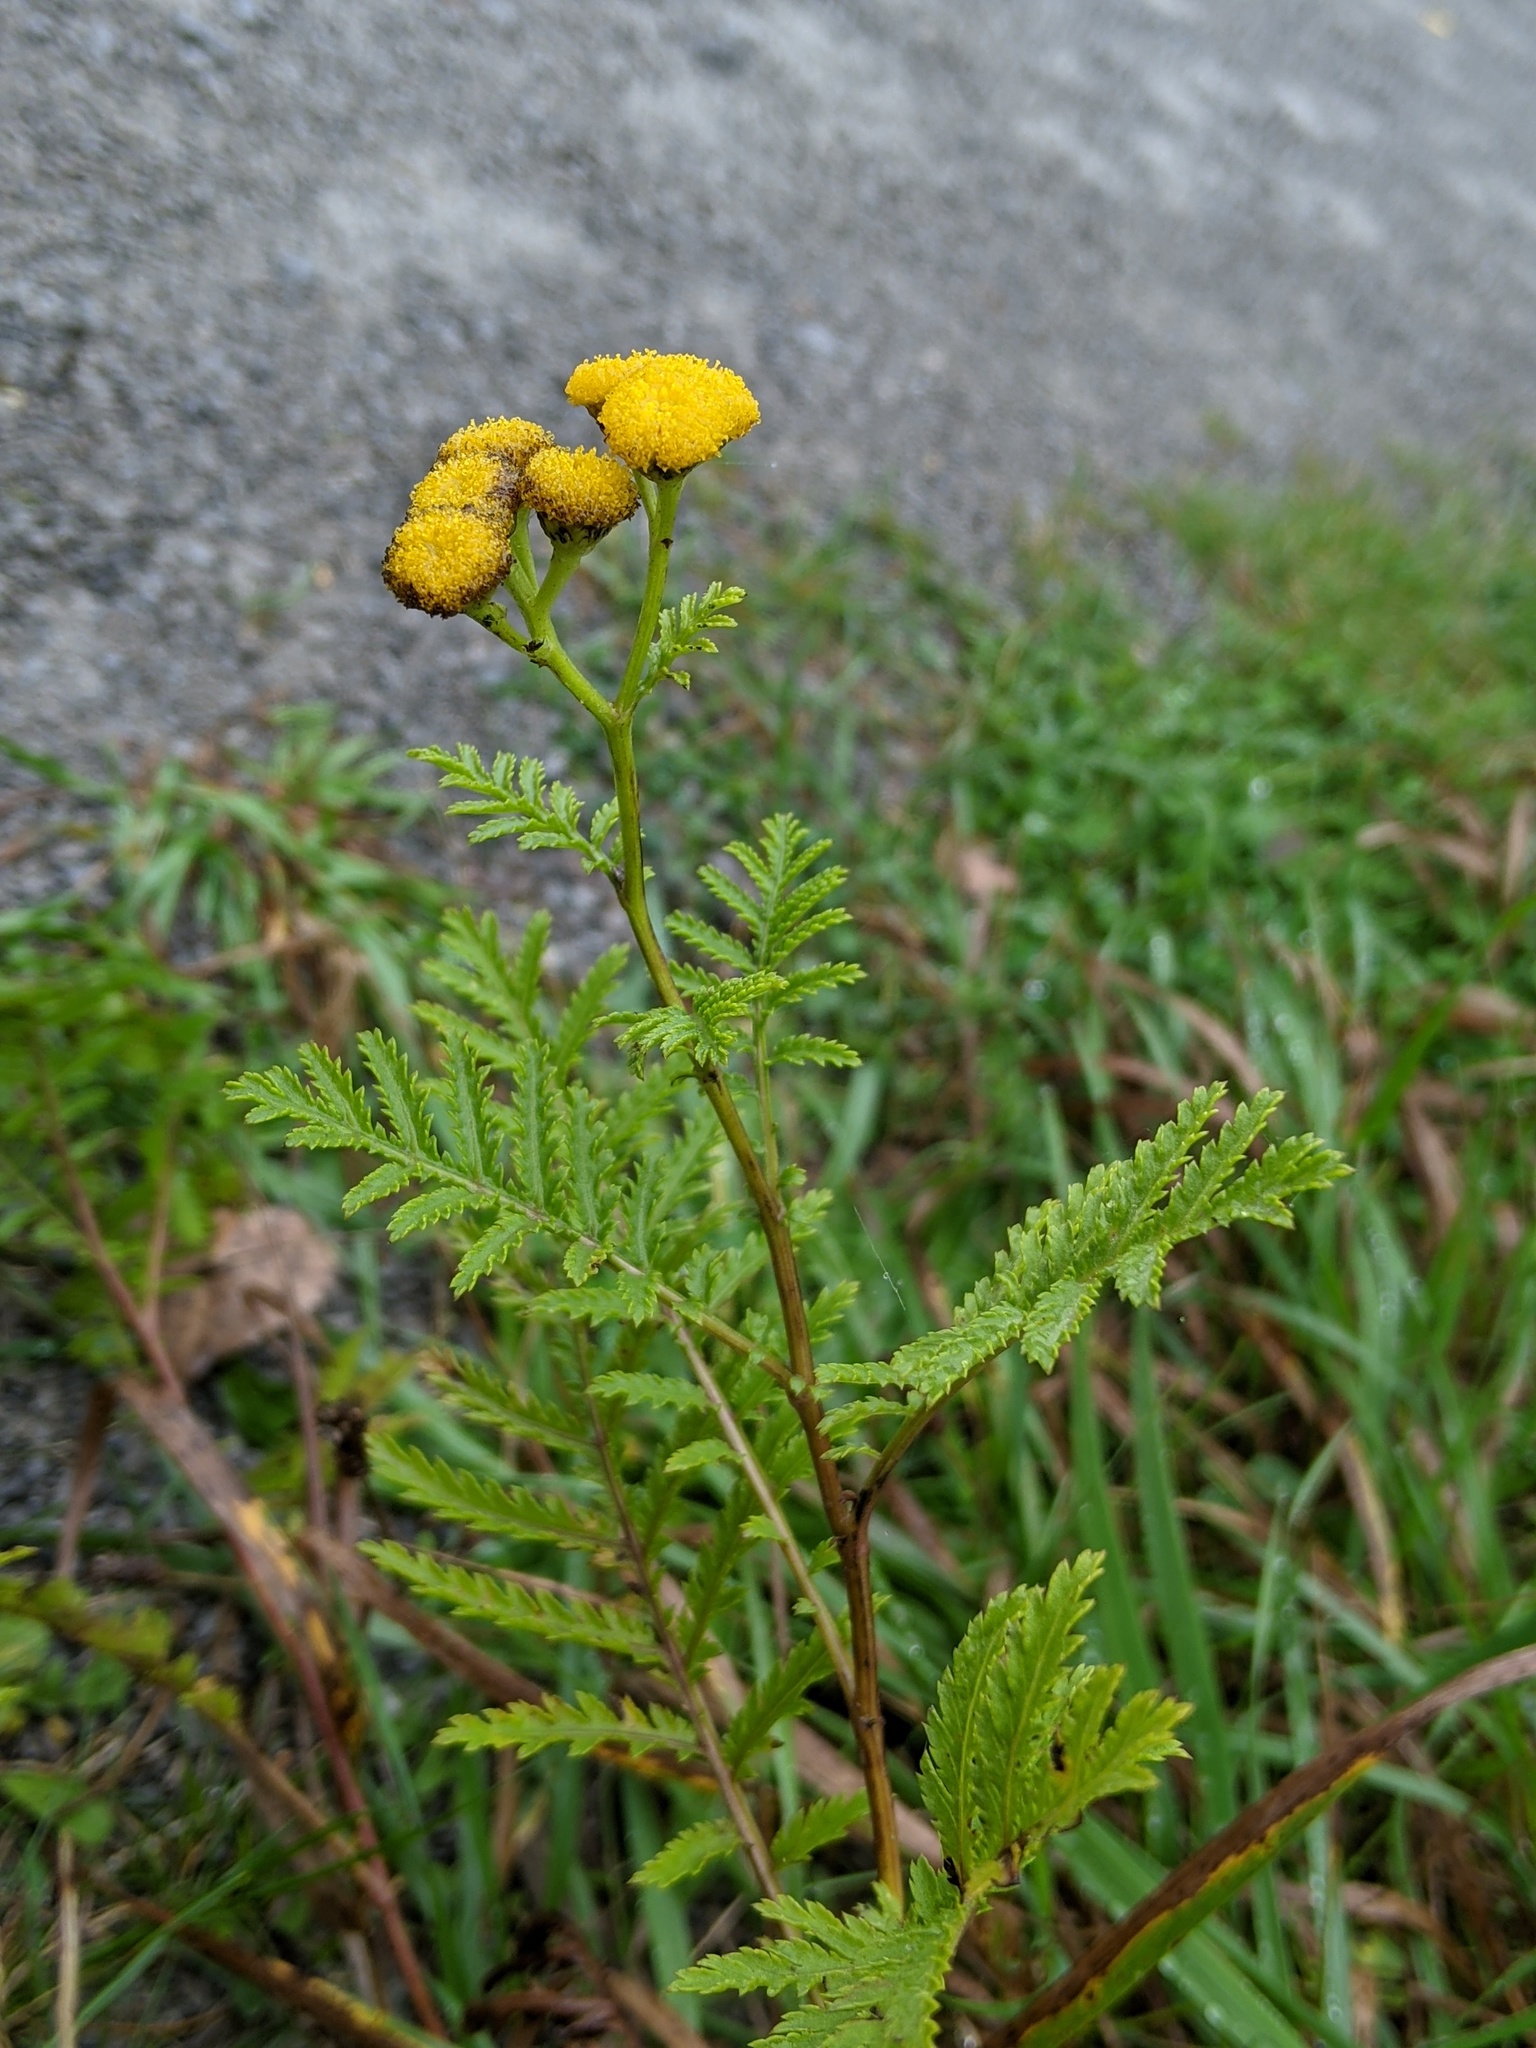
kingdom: Plantae
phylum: Tracheophyta
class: Magnoliopsida
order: Asterales
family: Asteraceae
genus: Tanacetum
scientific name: Tanacetum vulgare
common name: Common tansy
